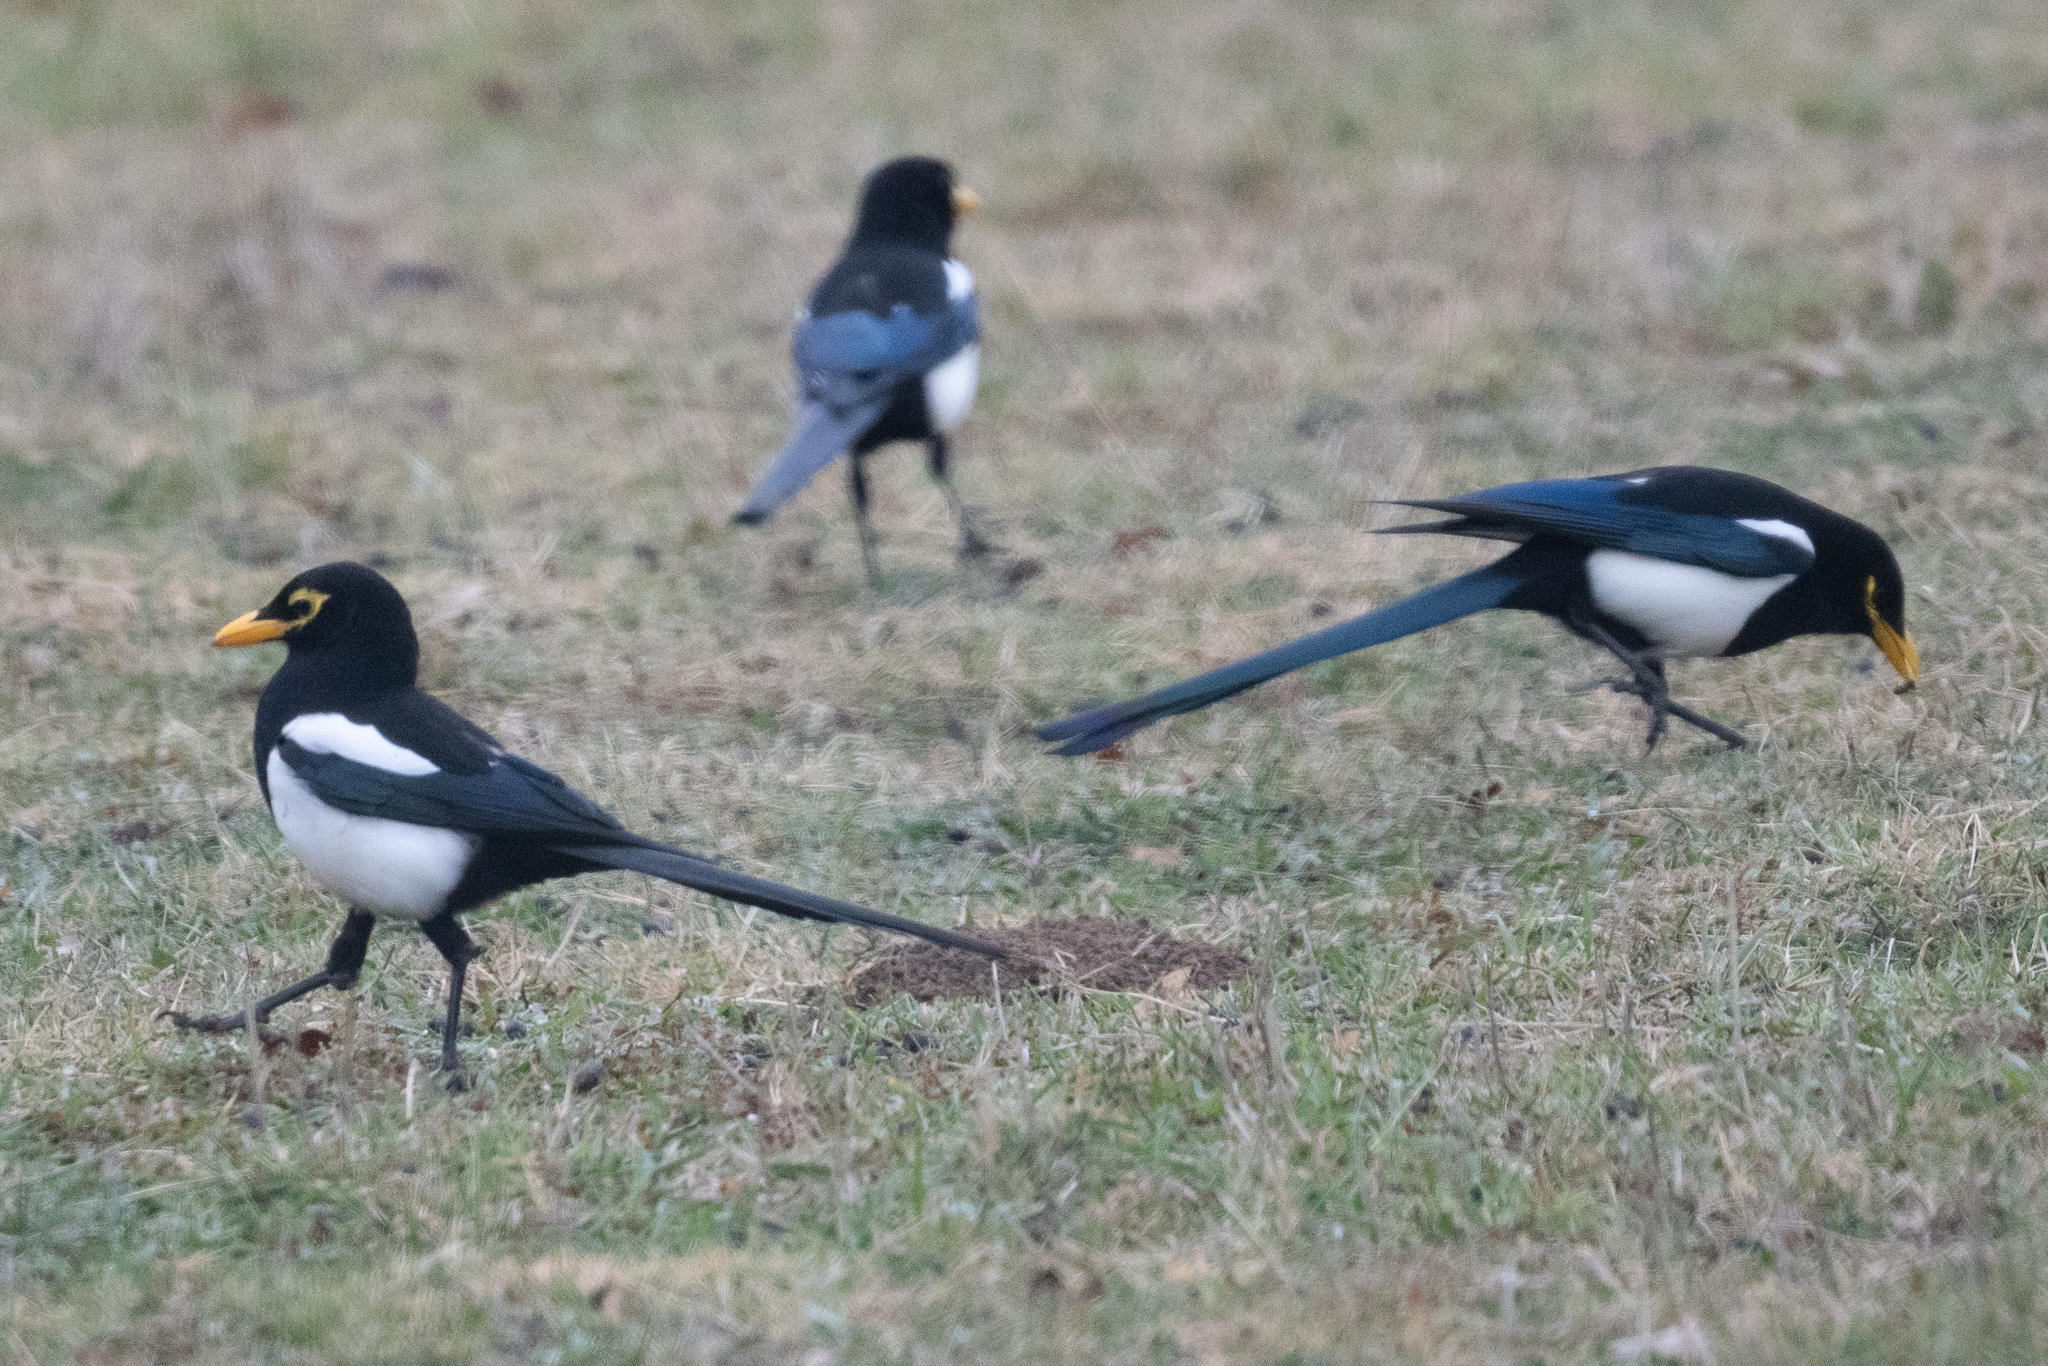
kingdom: Animalia
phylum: Chordata
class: Aves
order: Passeriformes
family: Corvidae
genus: Pica
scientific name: Pica nuttalli
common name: Yellow-billed magpie
